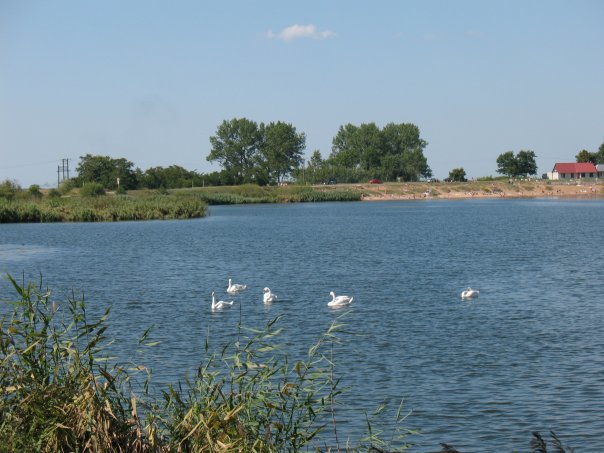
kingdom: Animalia
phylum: Chordata
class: Aves
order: Anseriformes
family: Anatidae
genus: Cygnus
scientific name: Cygnus olor
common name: Mute swan
